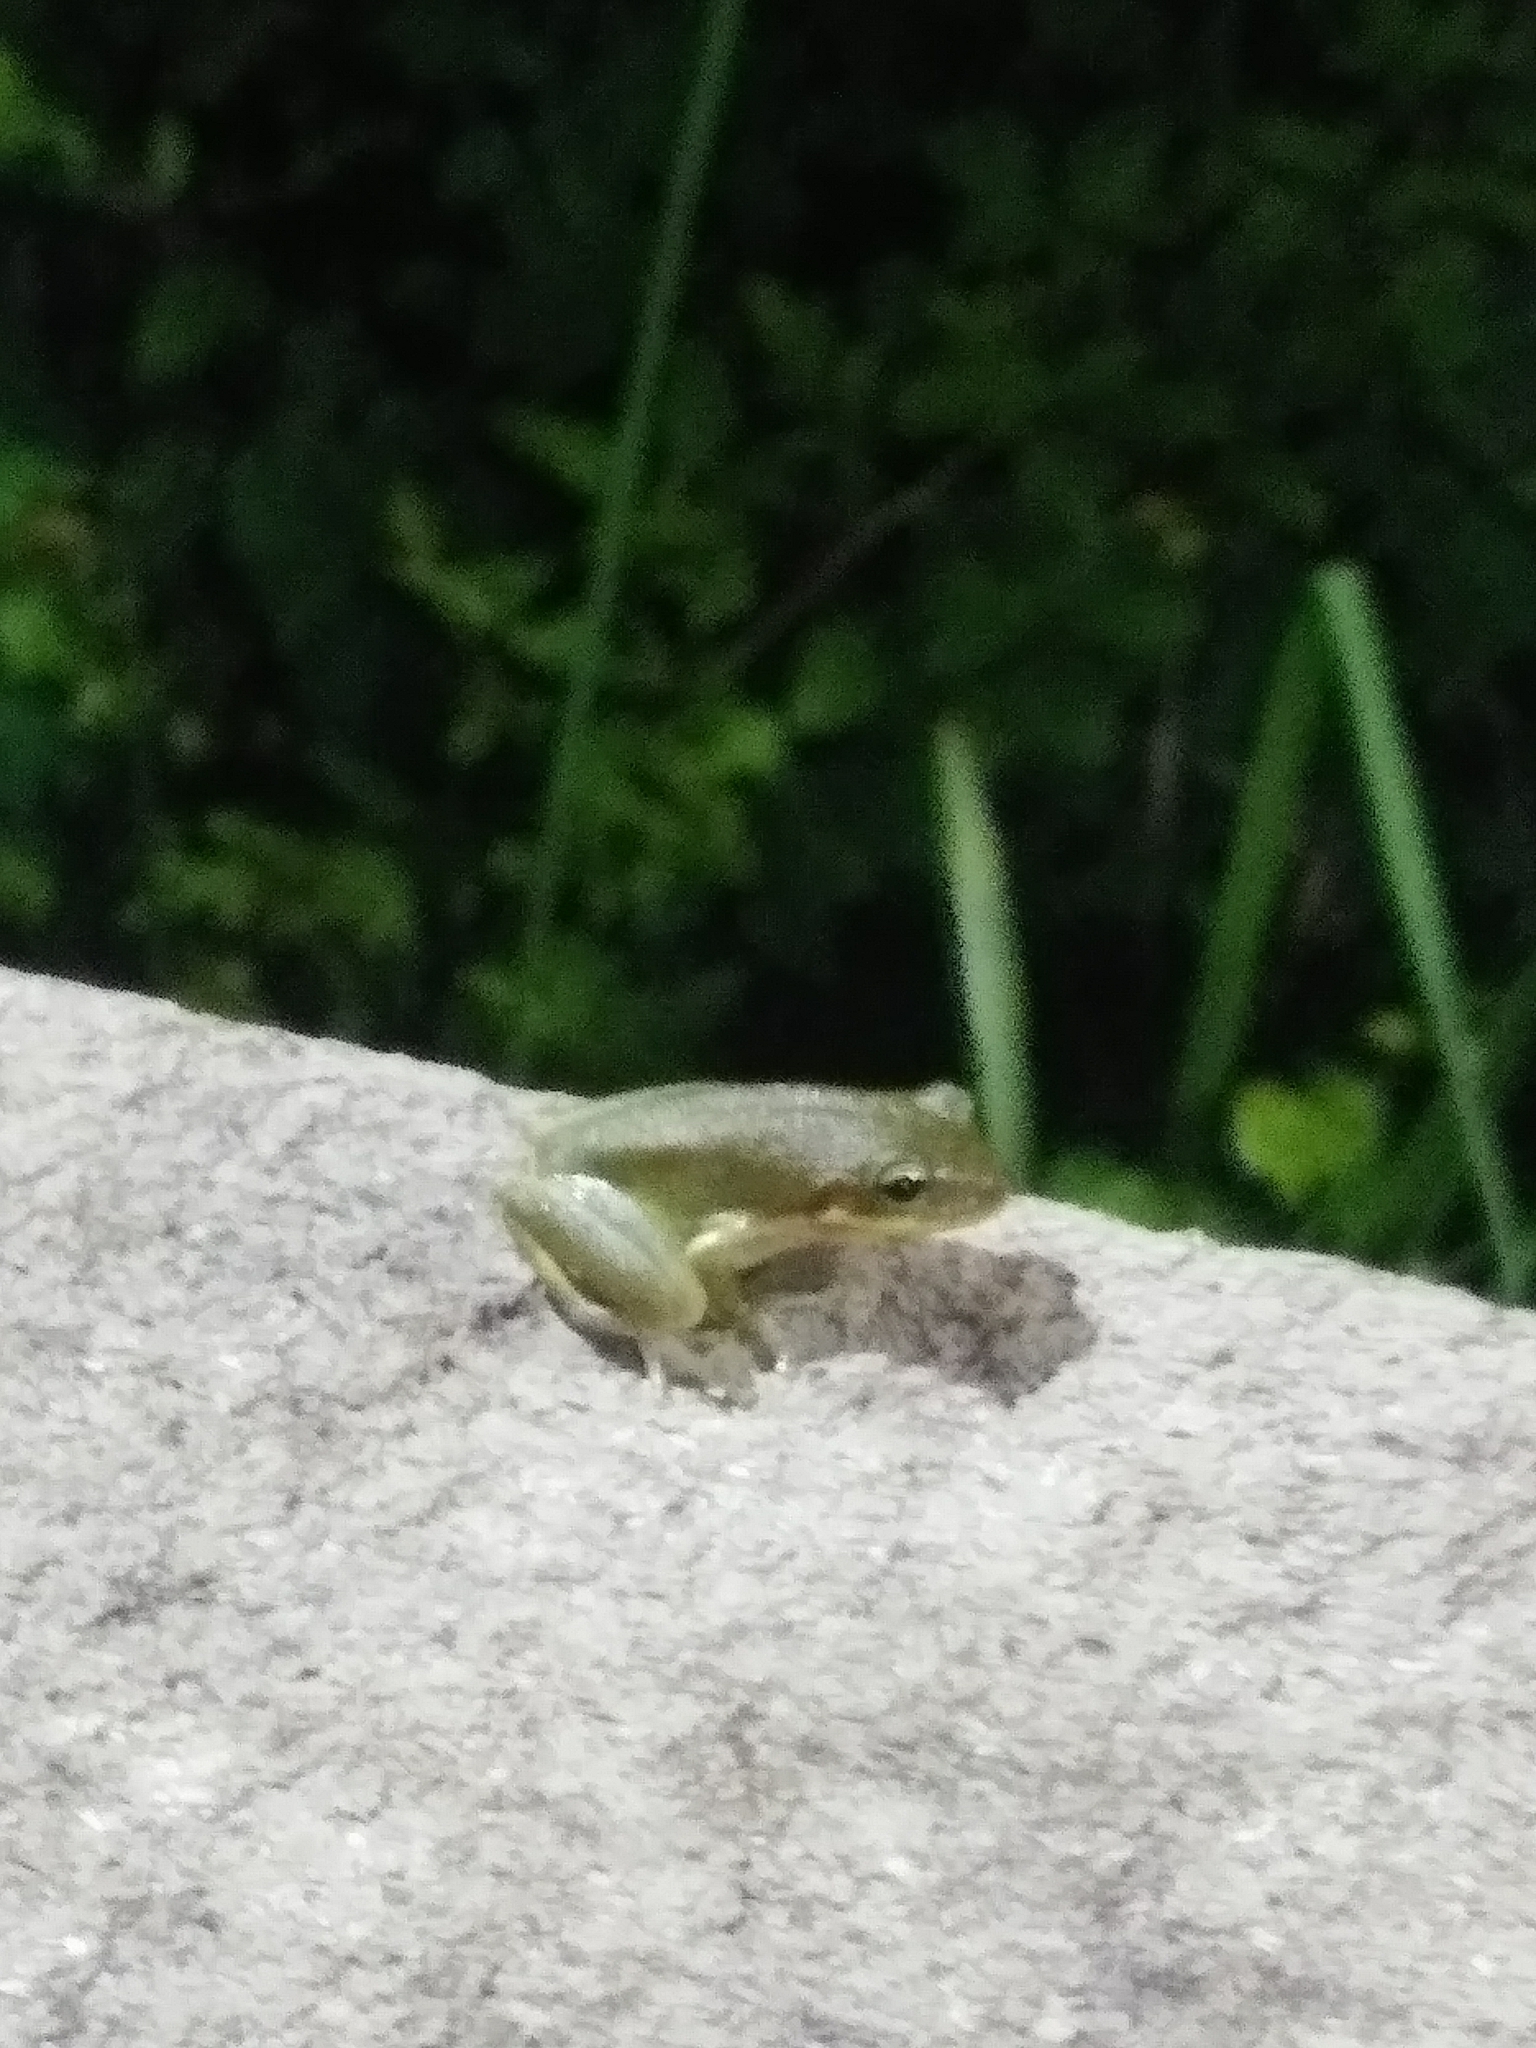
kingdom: Animalia
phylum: Chordata
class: Amphibia
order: Anura
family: Hylidae
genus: Dryophytes
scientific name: Dryophytes squirellus
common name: Squirrel treefrog
